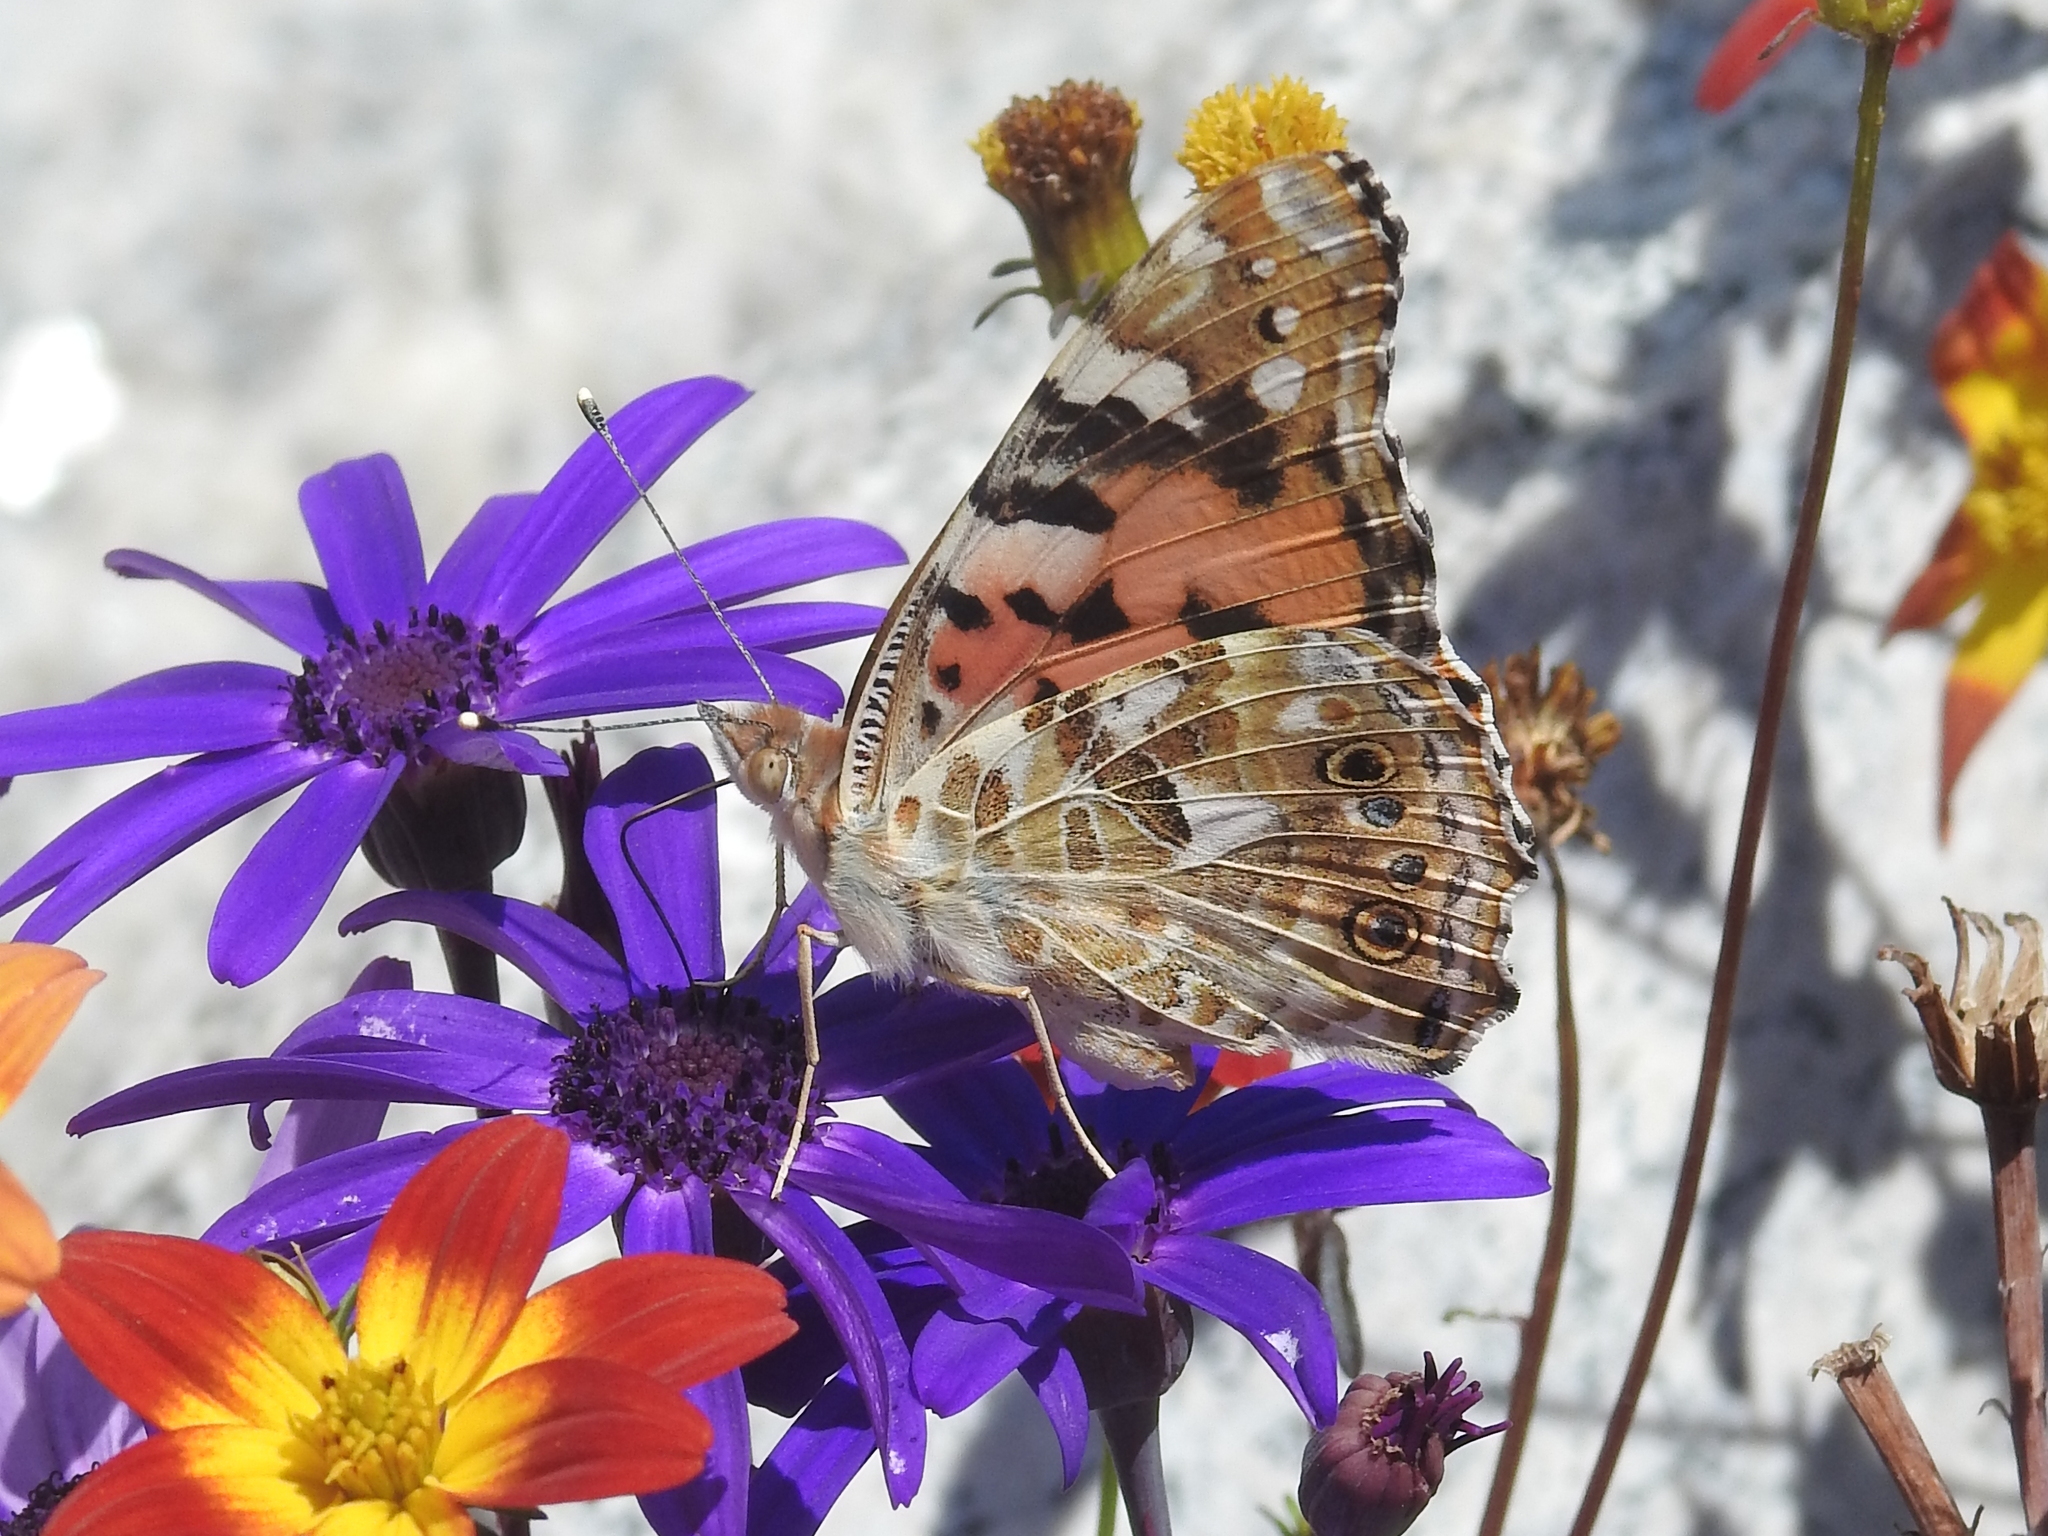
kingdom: Animalia
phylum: Arthropoda
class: Insecta
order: Lepidoptera
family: Nymphalidae
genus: Vanessa
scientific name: Vanessa cardui
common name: Painted lady
